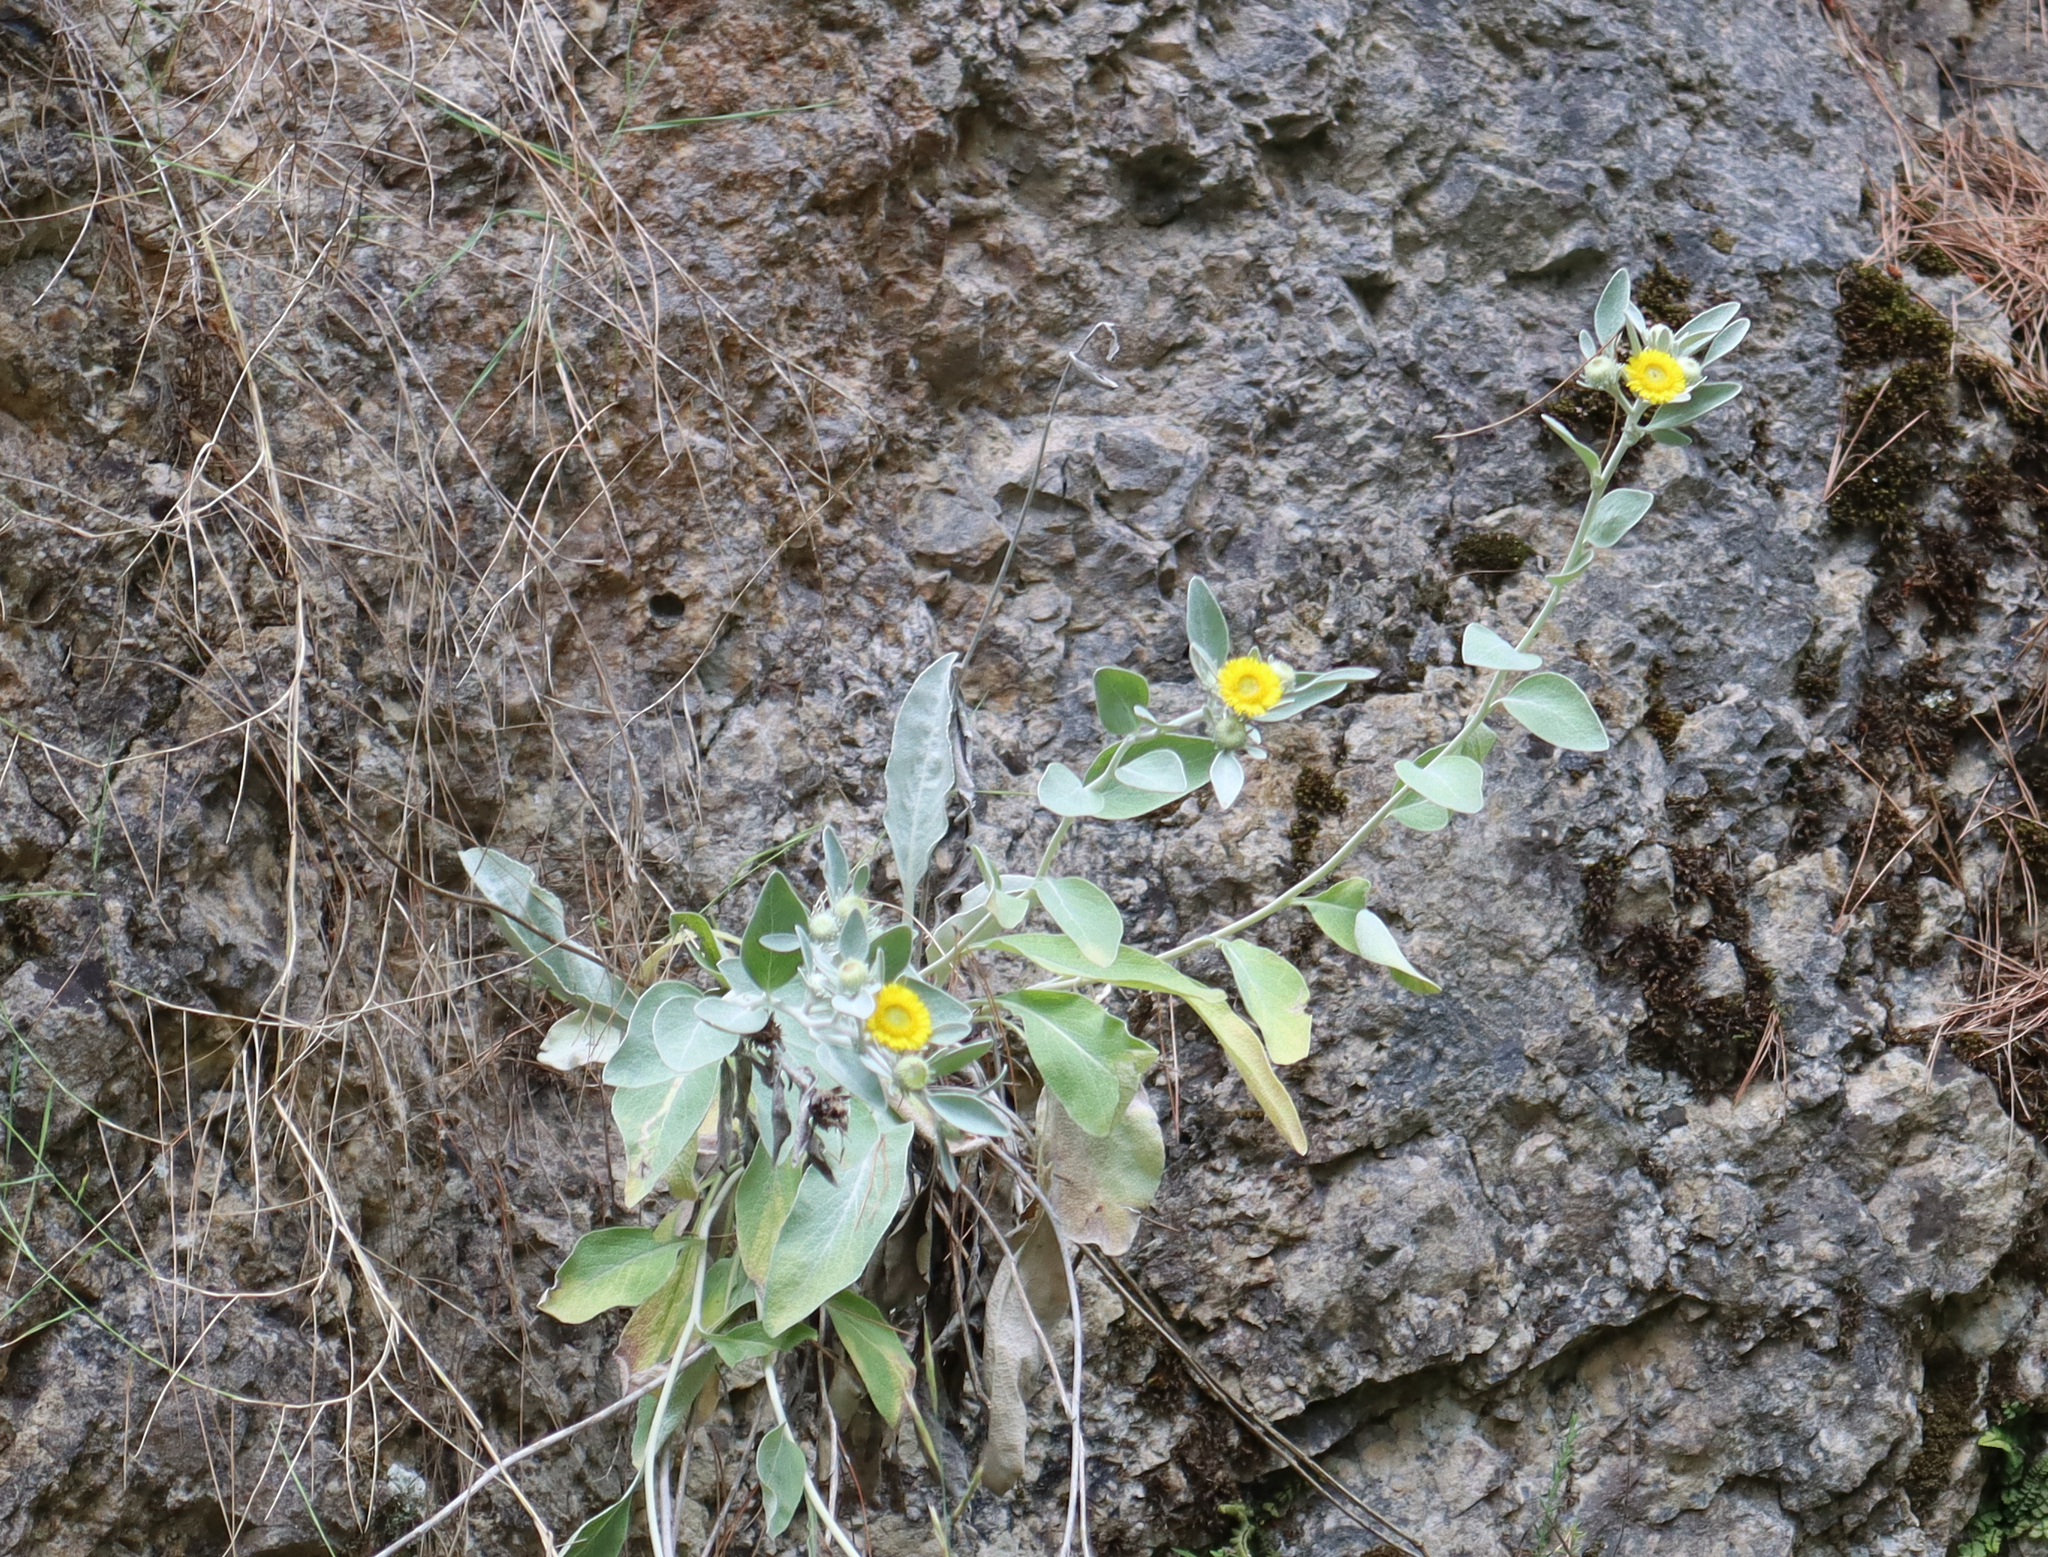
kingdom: Plantae
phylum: Tracheophyta
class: Magnoliopsida
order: Asterales
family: Asteraceae
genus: Pentanema
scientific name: Pentanema verbascifolium
